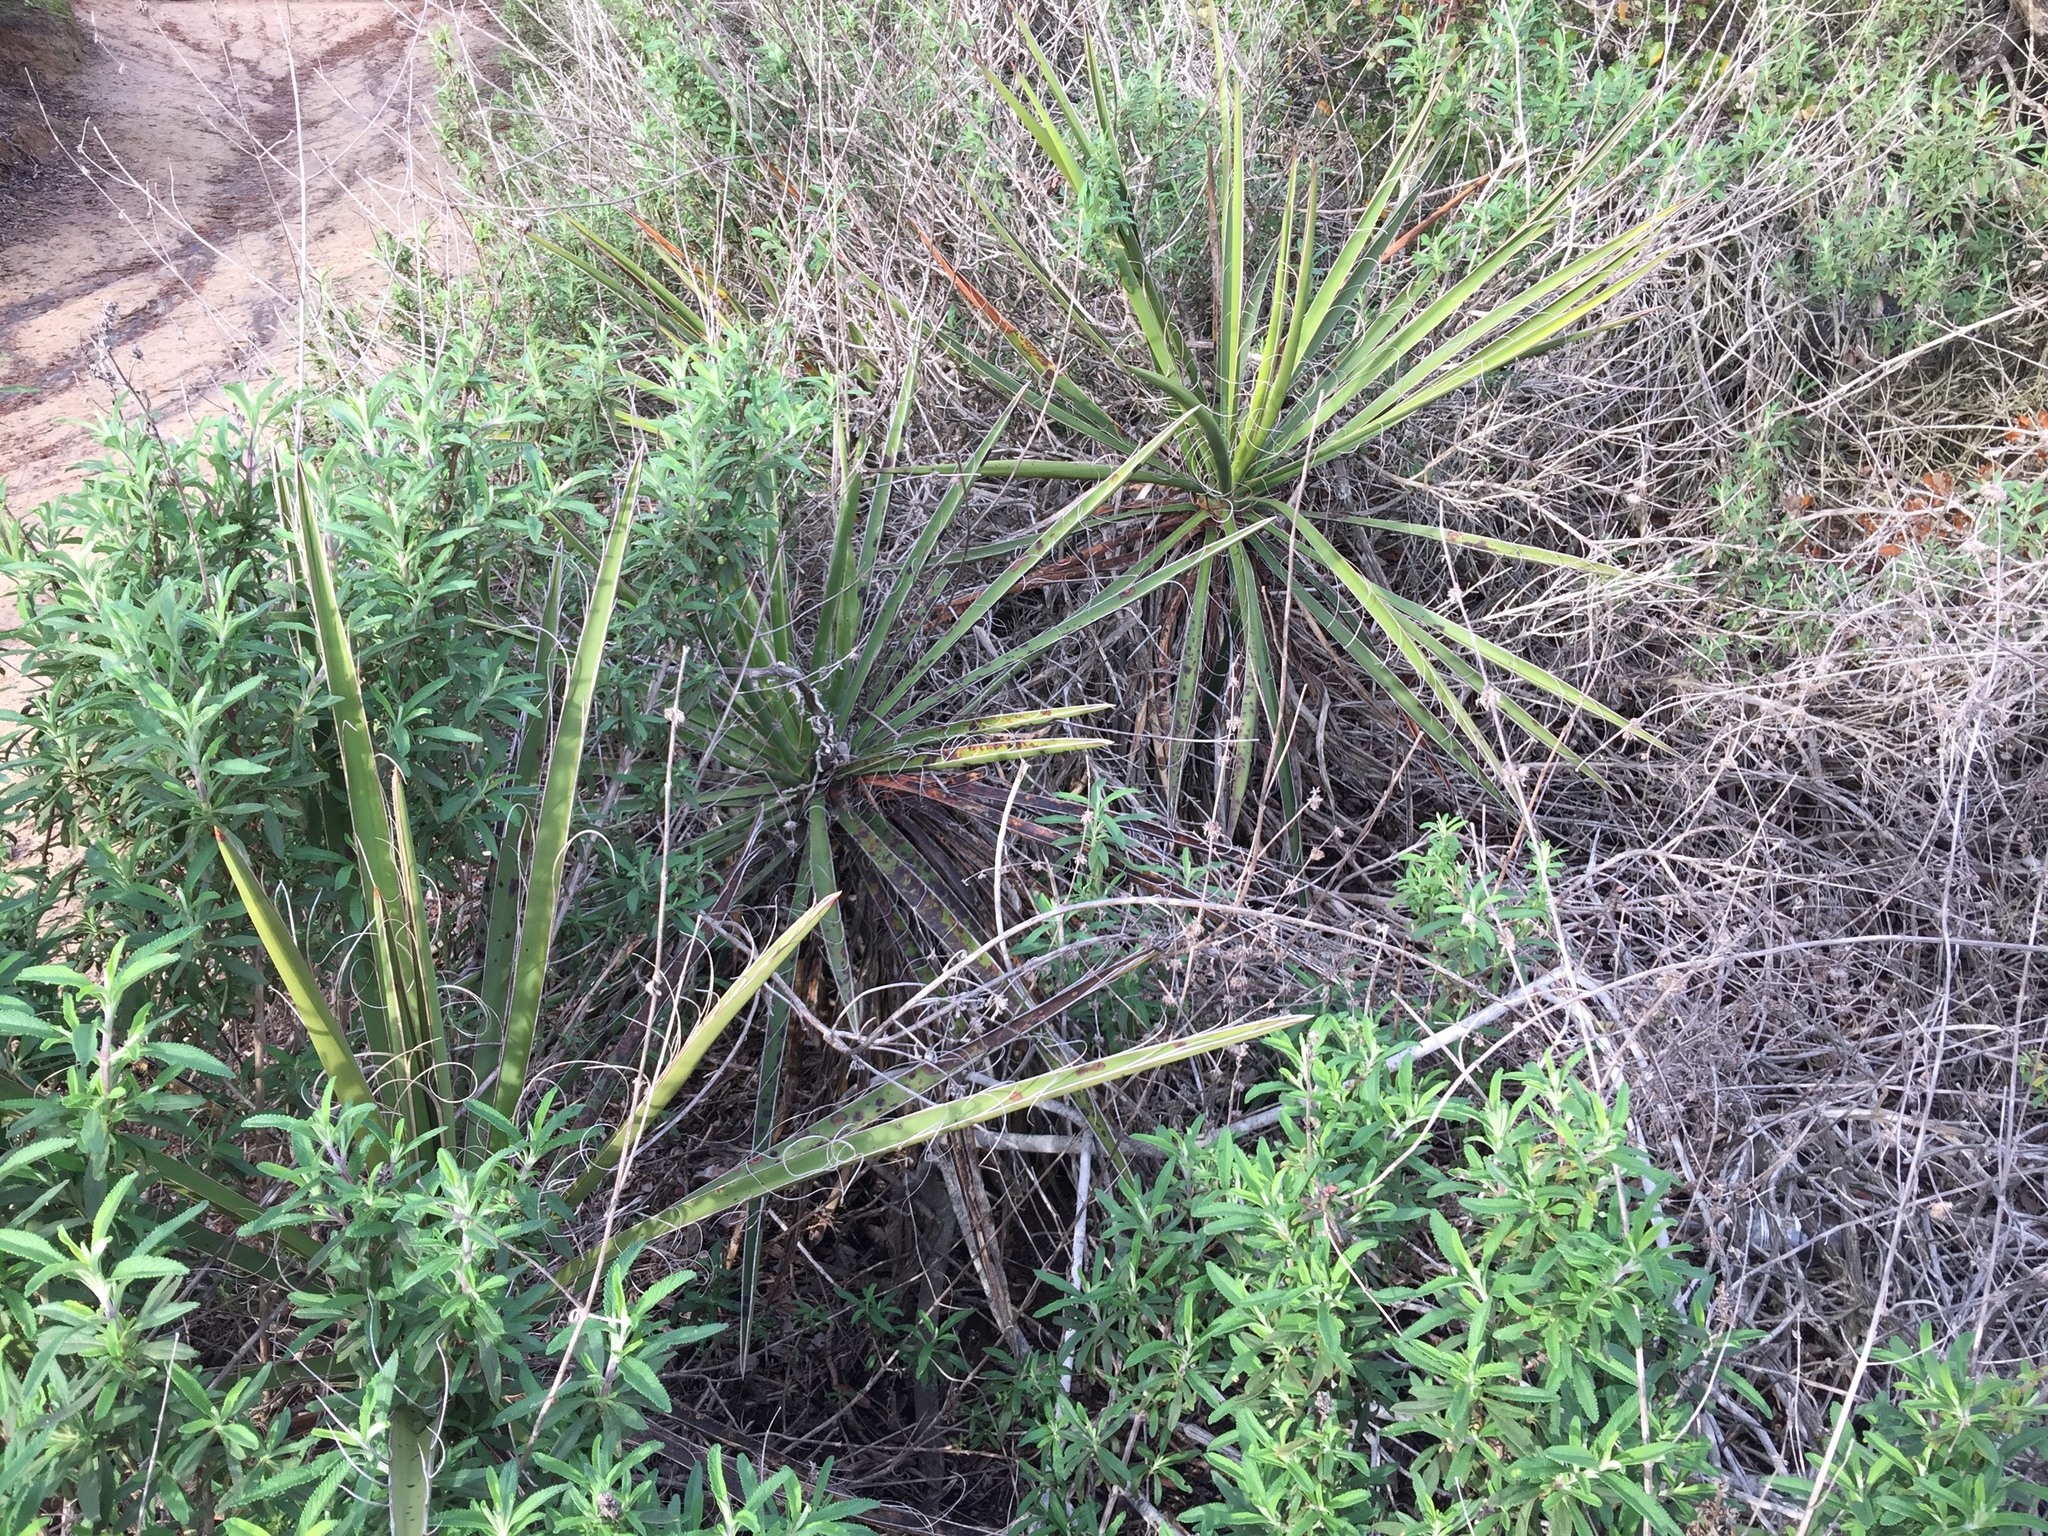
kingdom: Plantae
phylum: Tracheophyta
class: Liliopsida
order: Asparagales
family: Asparagaceae
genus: Yucca
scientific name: Yucca schidigera
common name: Mojave yucca
